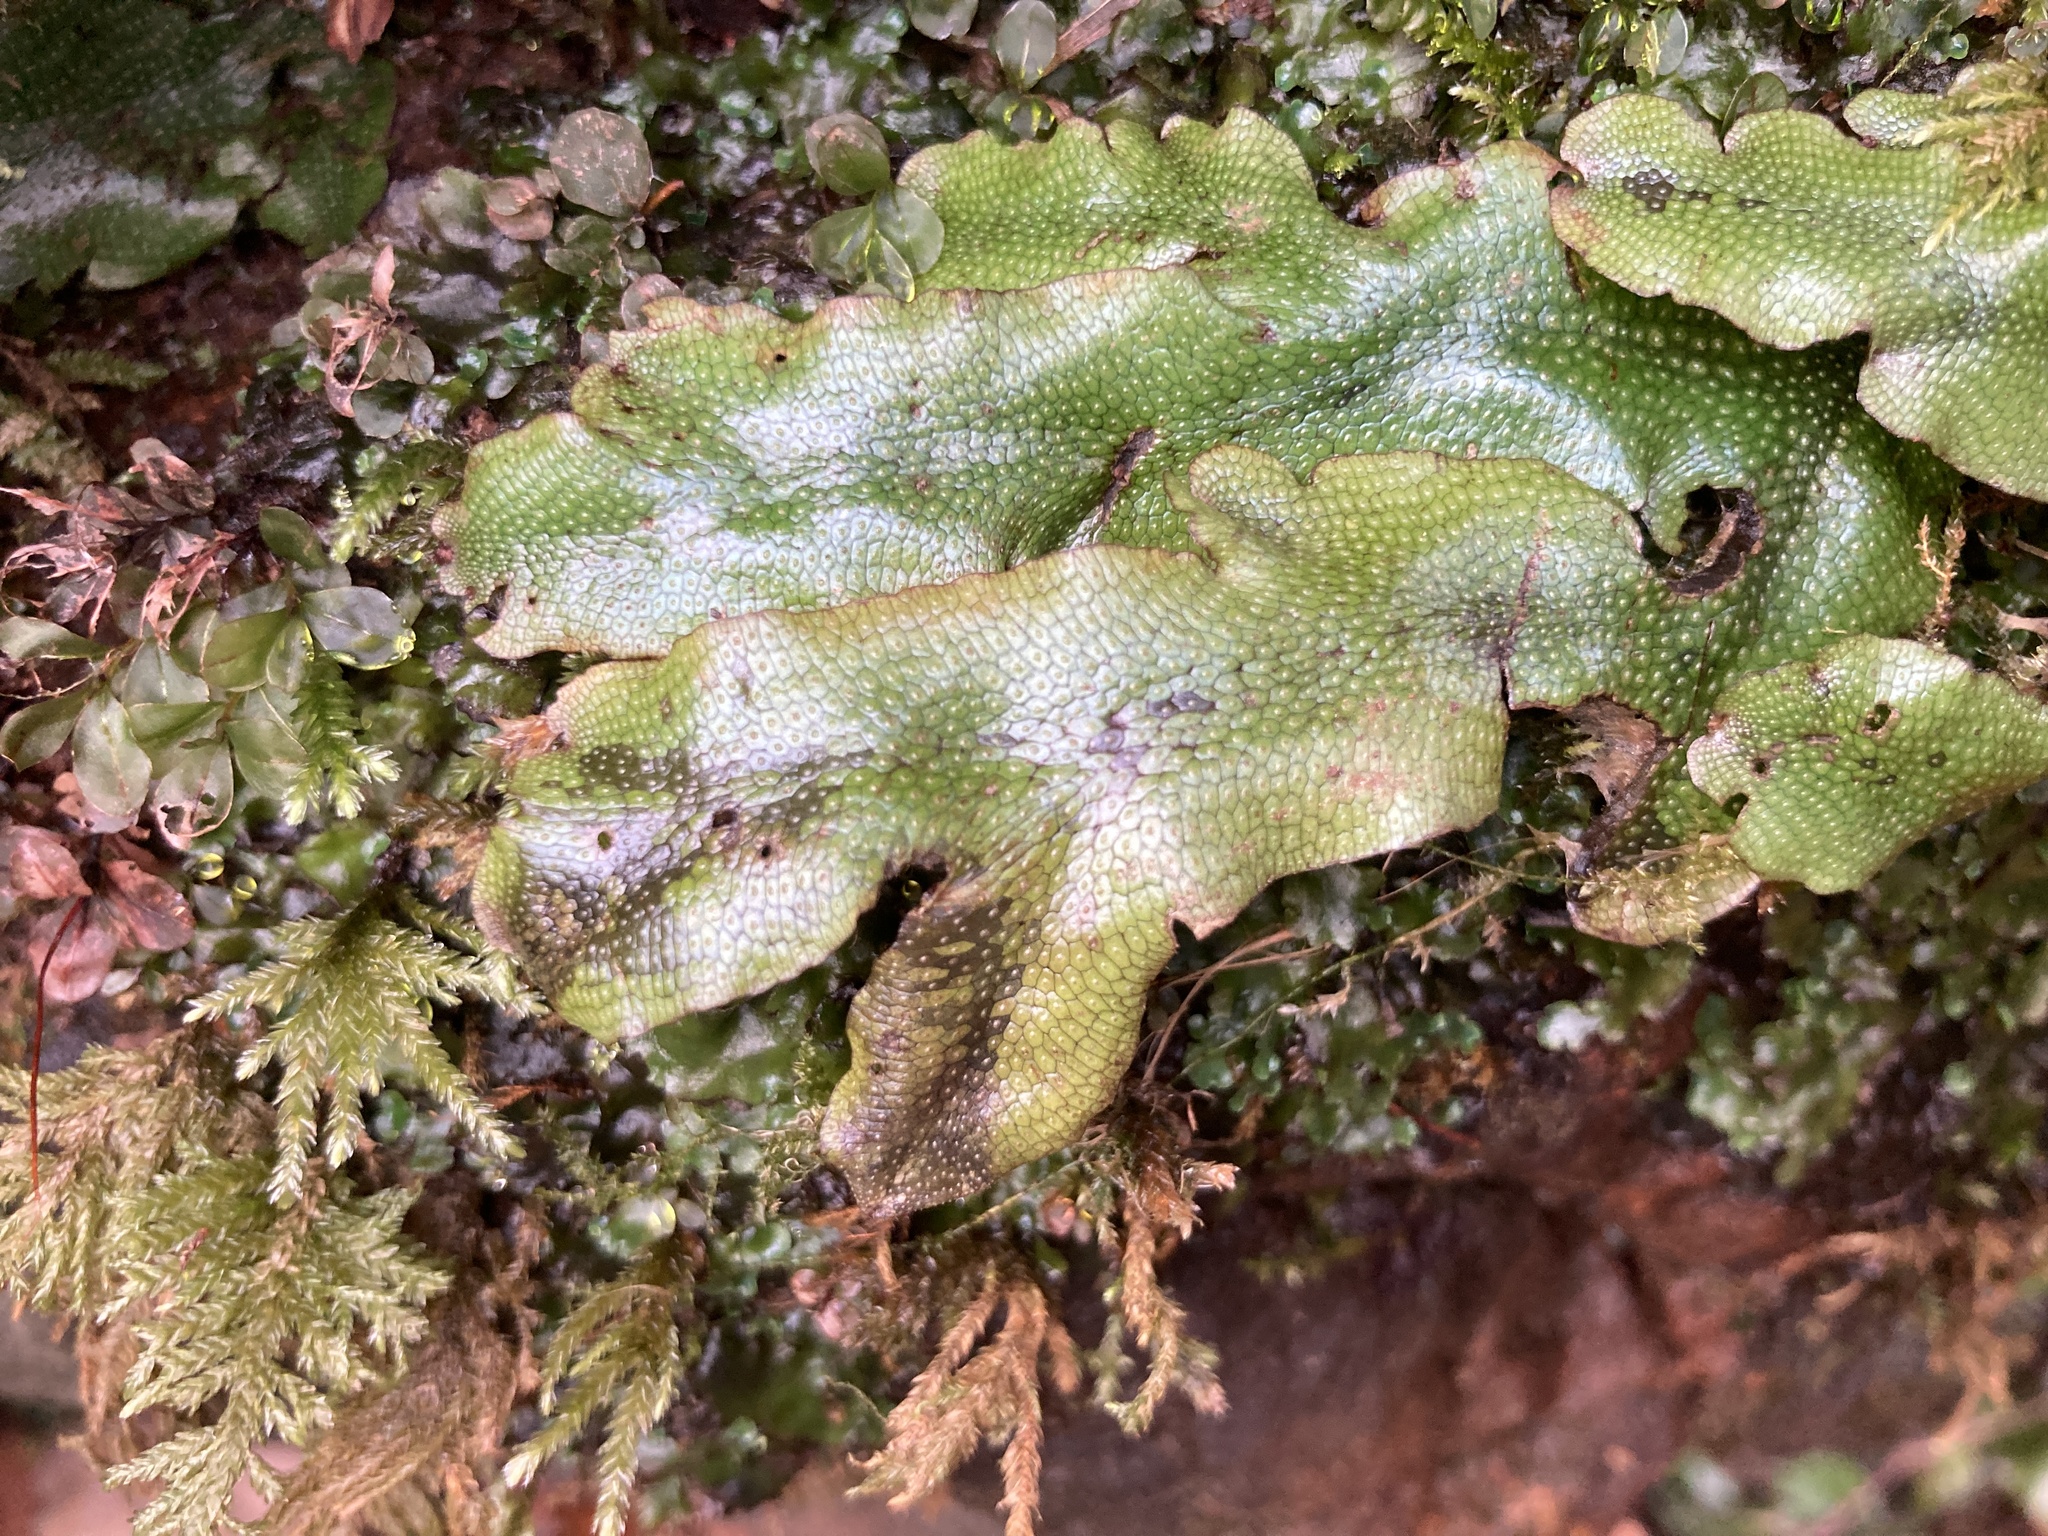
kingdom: Plantae
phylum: Marchantiophyta
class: Marchantiopsida
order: Marchantiales
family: Conocephalaceae
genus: Conocephalum
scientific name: Conocephalum conicum
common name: Great scented liverwort
